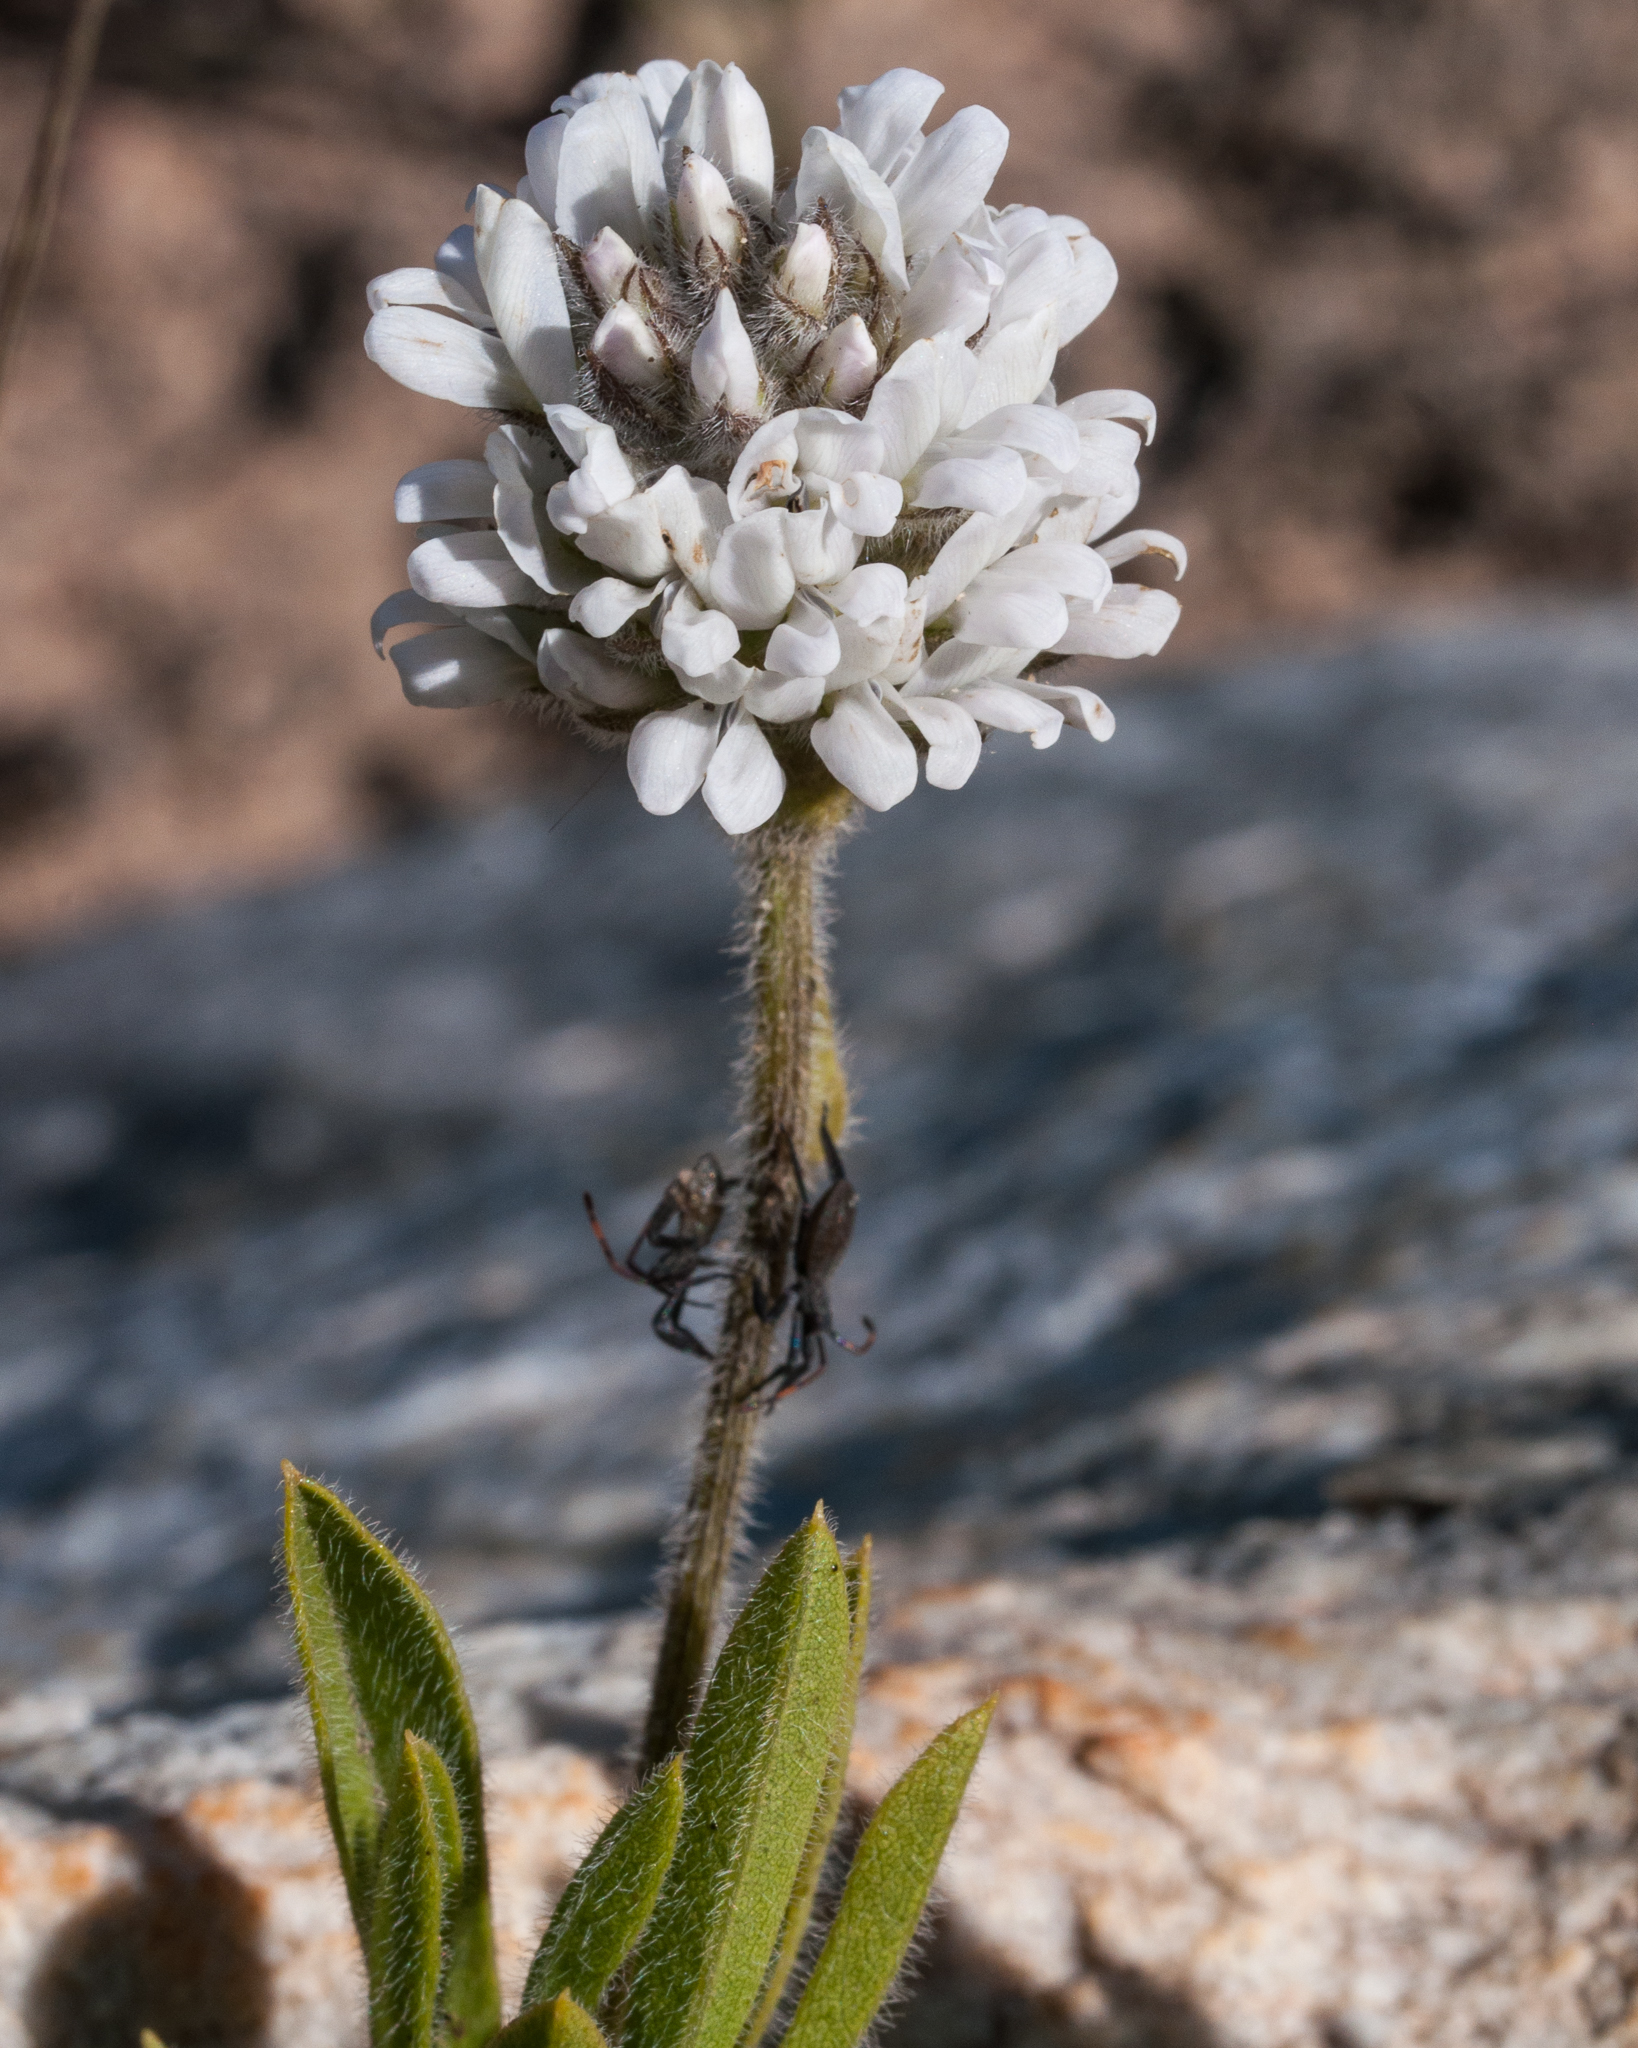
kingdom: Plantae
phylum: Tracheophyta
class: Magnoliopsida
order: Fabales
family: Fabaceae
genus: Psoralea
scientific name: Psoralea zeyheri
